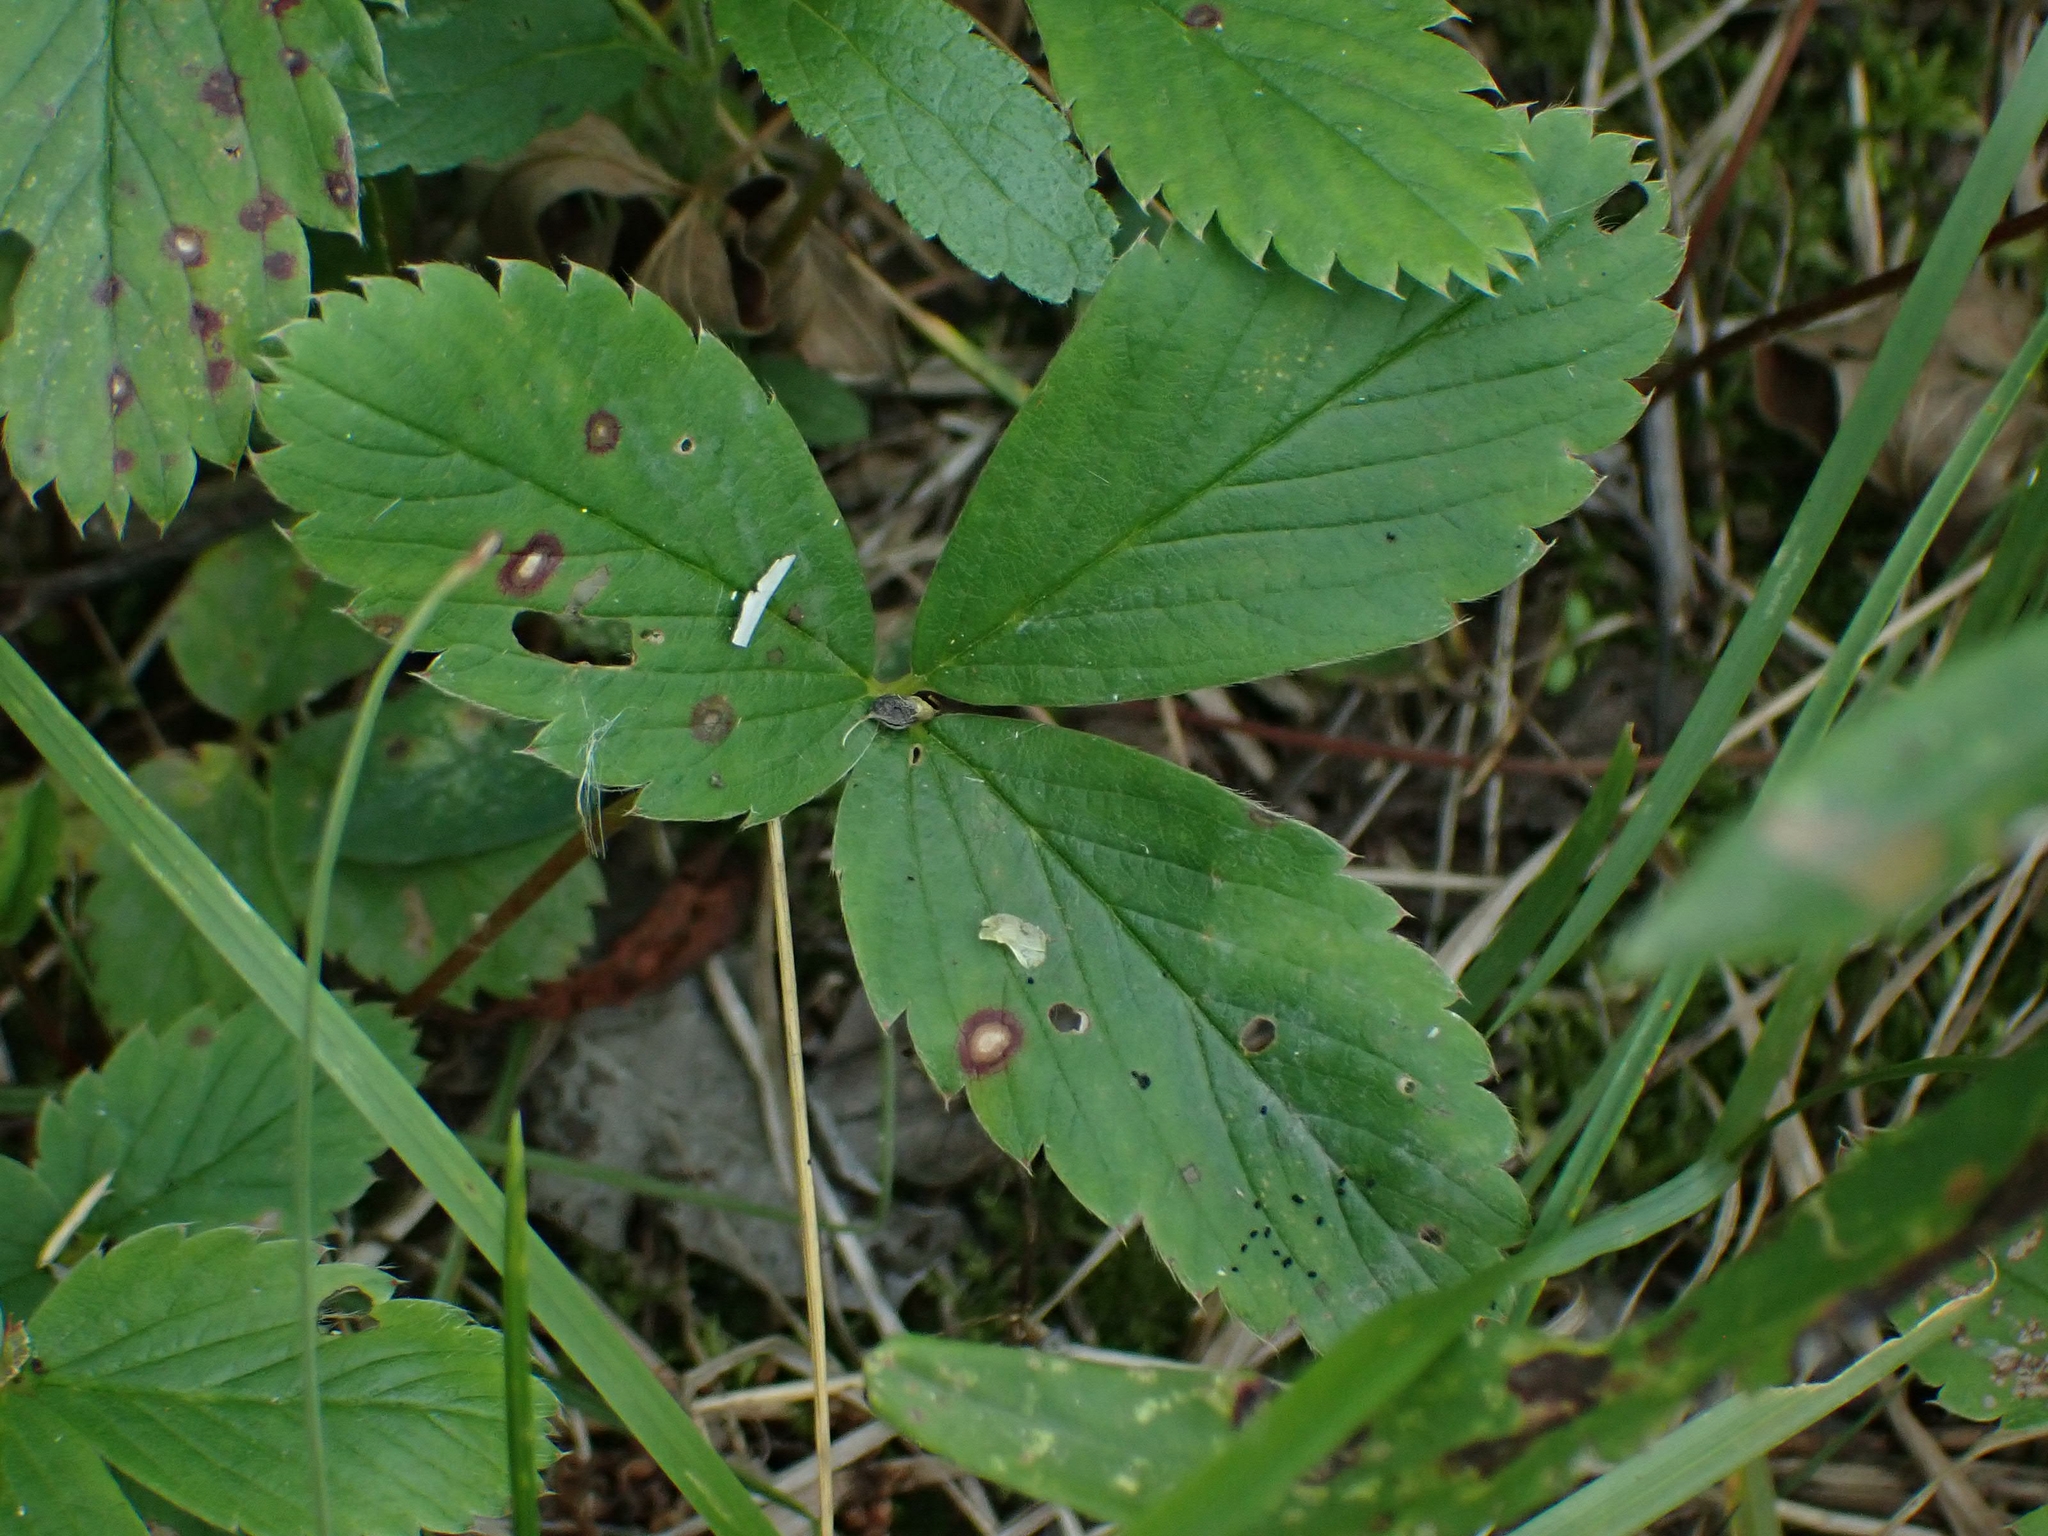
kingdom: Plantae
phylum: Tracheophyta
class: Magnoliopsida
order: Rosales
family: Rosaceae
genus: Fragaria
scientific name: Fragaria virginiana
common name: Thickleaved wild strawberry
